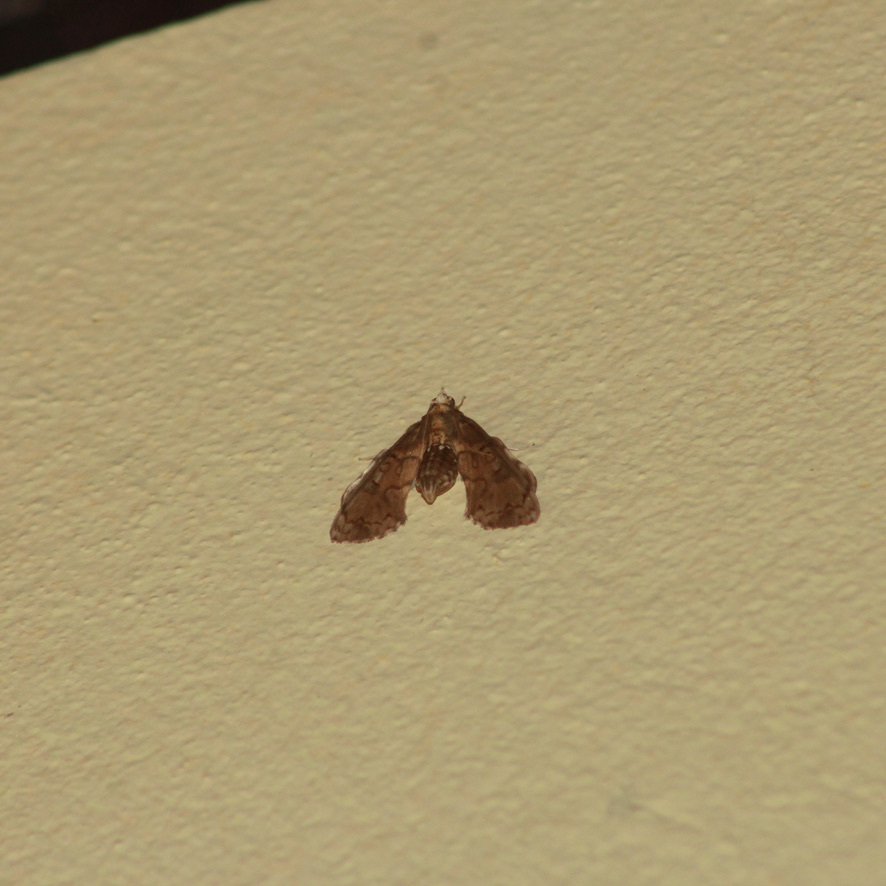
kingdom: Animalia
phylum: Arthropoda
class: Insecta
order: Lepidoptera
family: Crambidae
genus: Megastes
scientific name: Megastes pusialis
